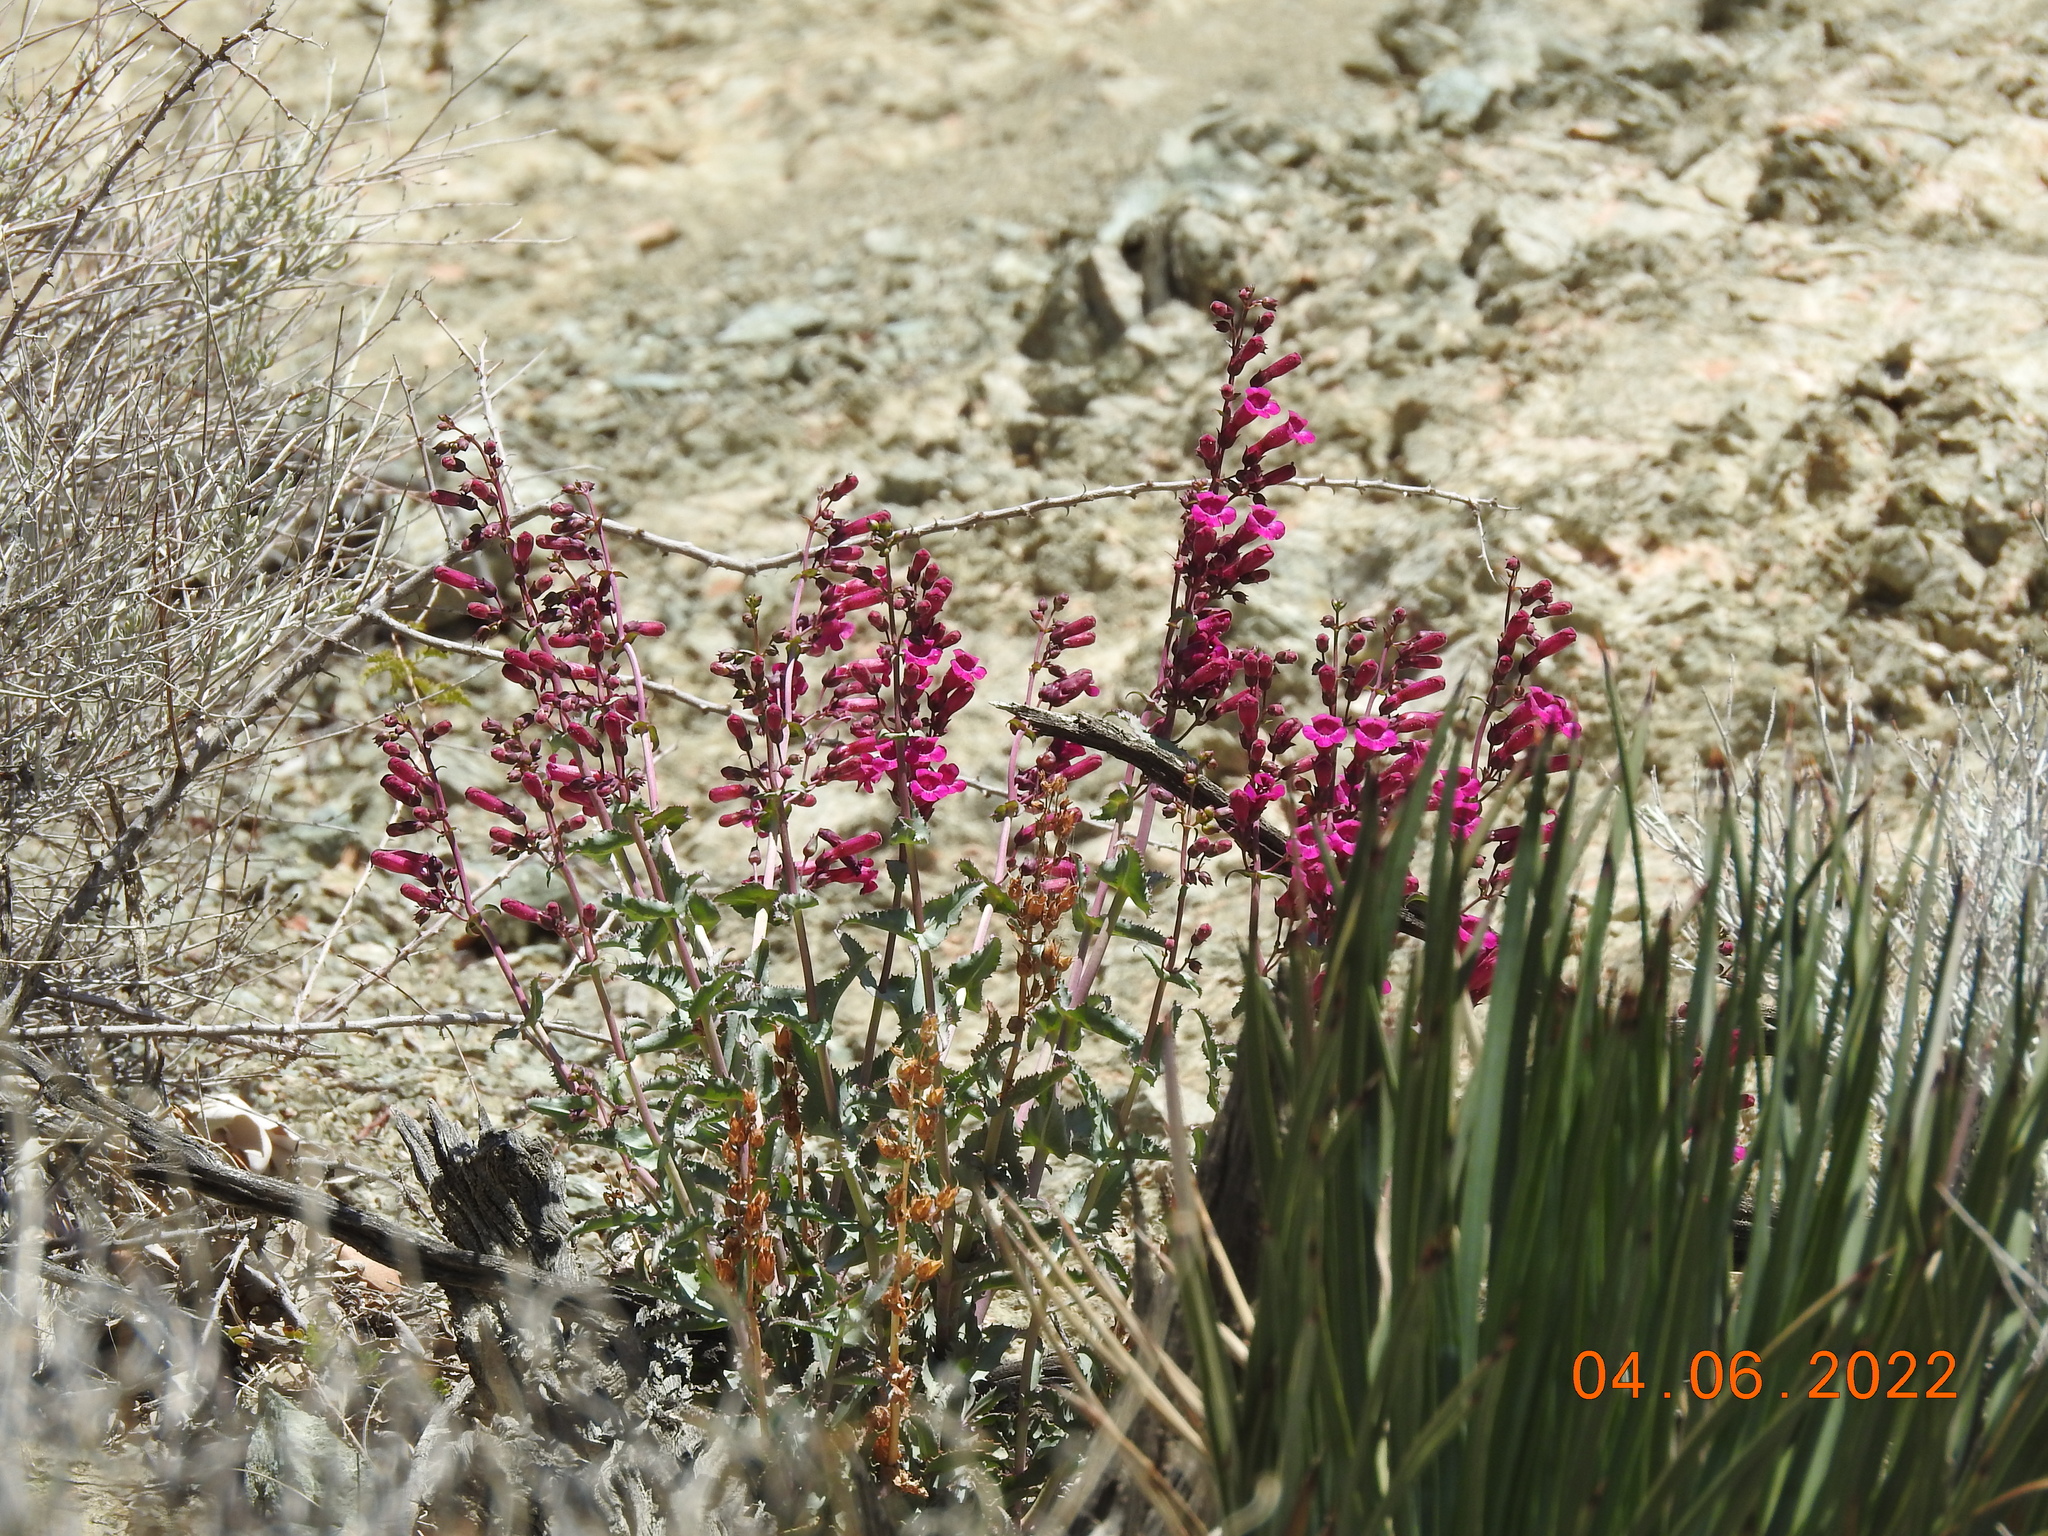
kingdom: Plantae
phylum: Tracheophyta
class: Magnoliopsida
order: Lamiales
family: Plantaginaceae
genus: Penstemon
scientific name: Penstemon clevelandii
